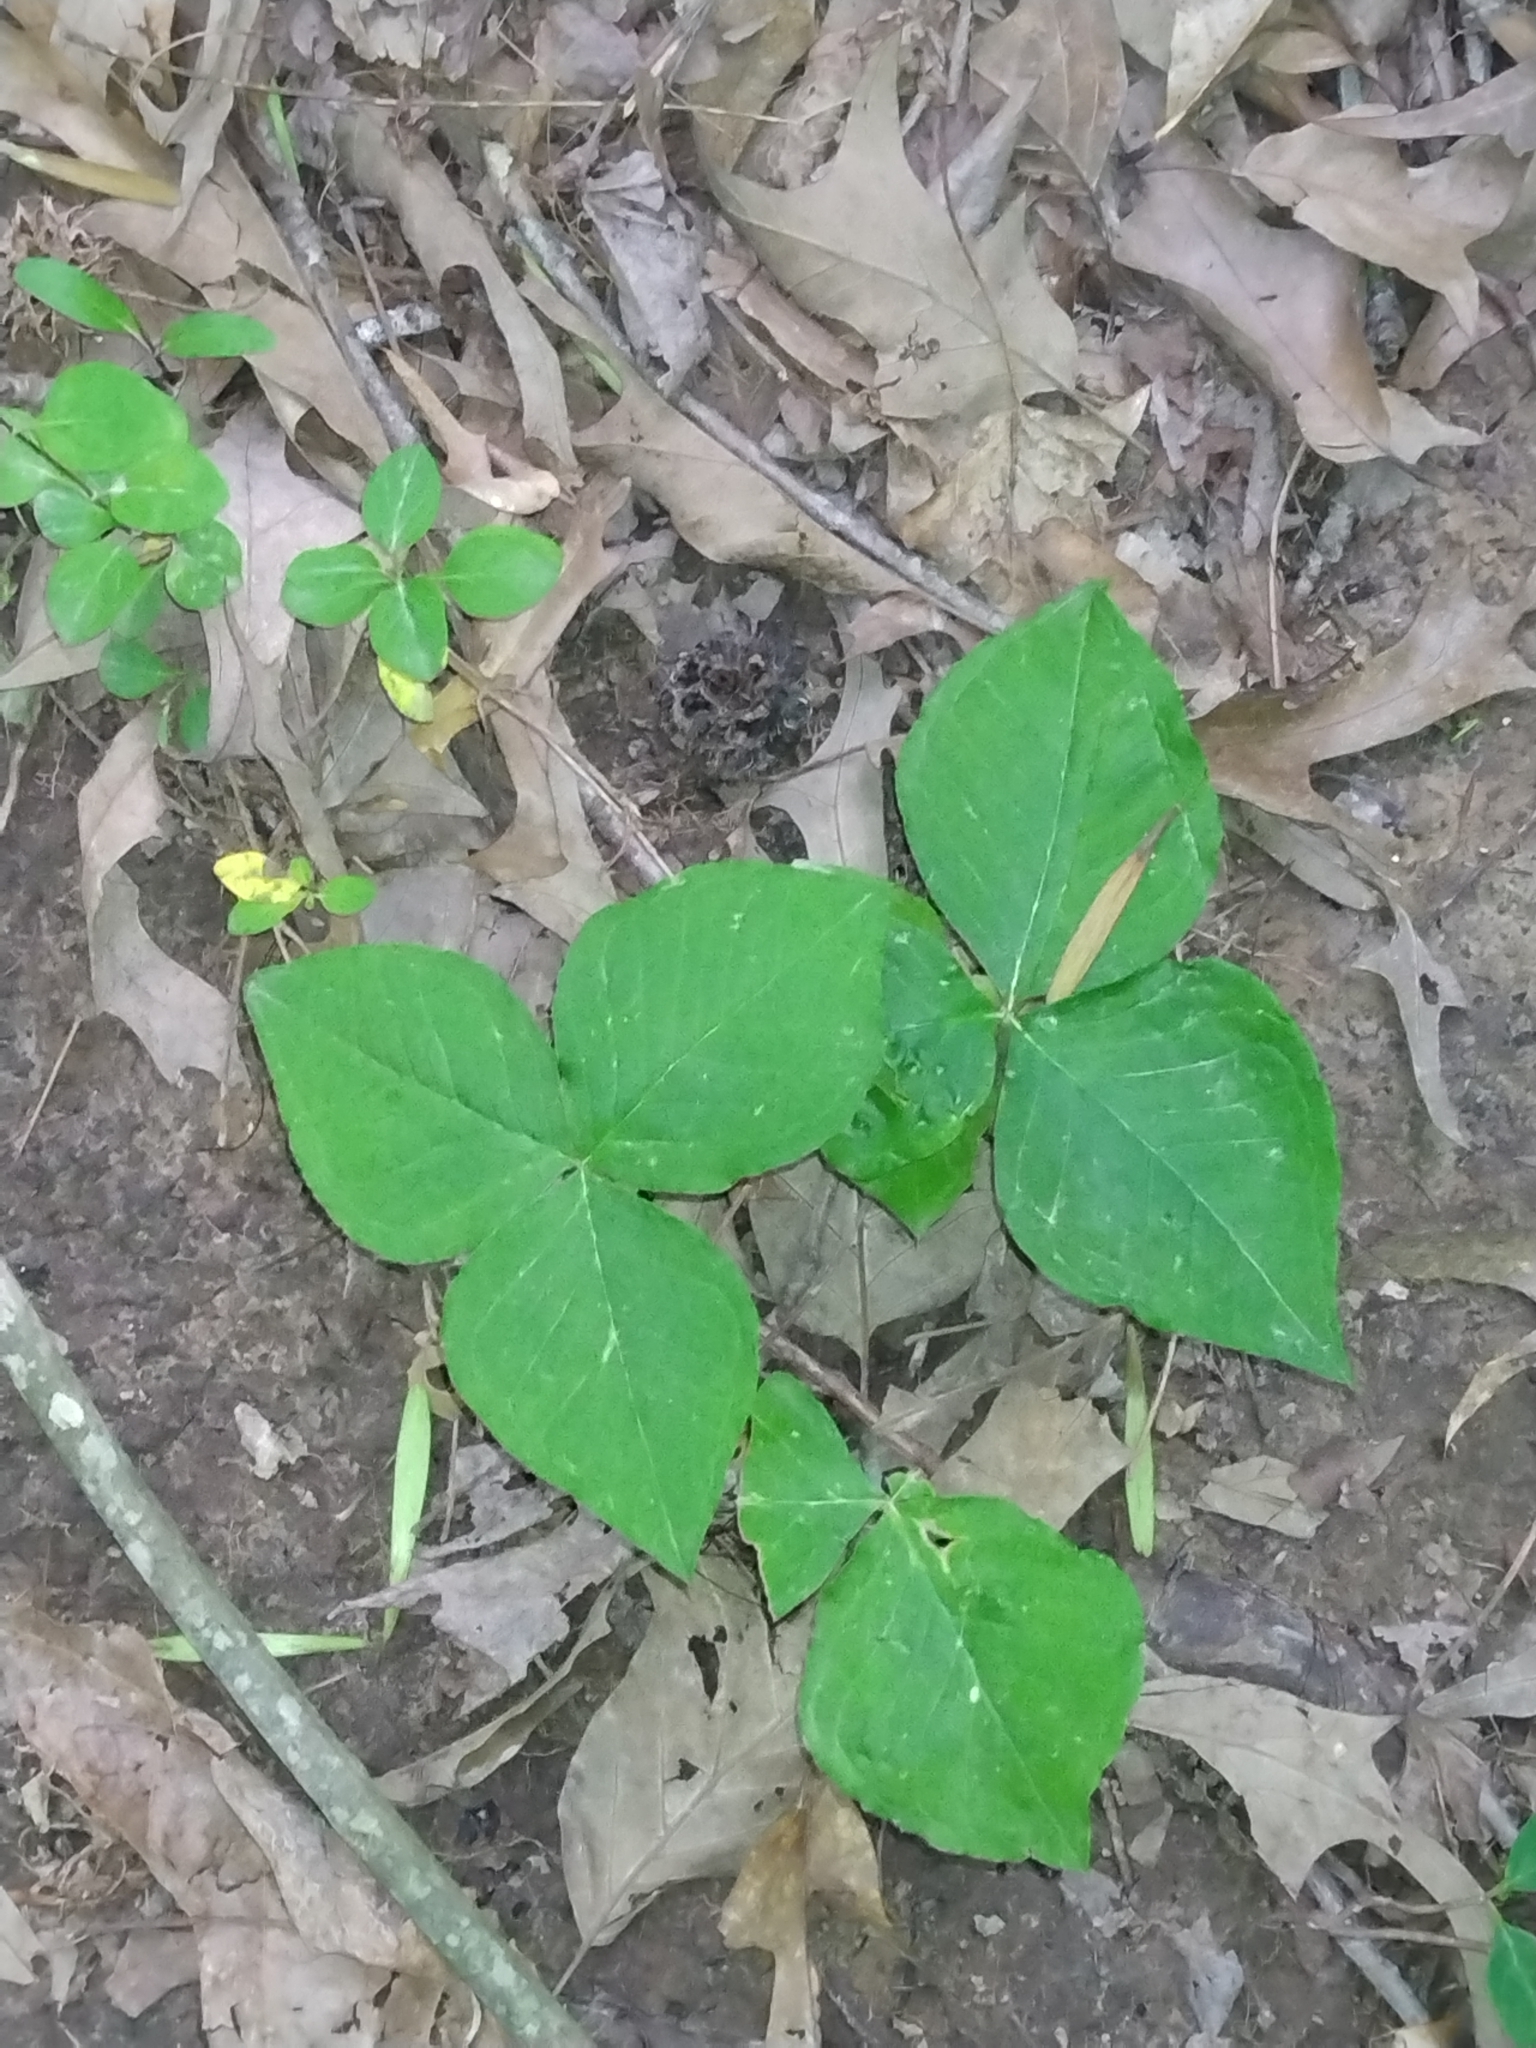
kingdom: Plantae
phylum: Tracheophyta
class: Liliopsida
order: Alismatales
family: Araceae
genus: Arisaema
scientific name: Arisaema triphyllum
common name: Jack-in-the-pulpit
